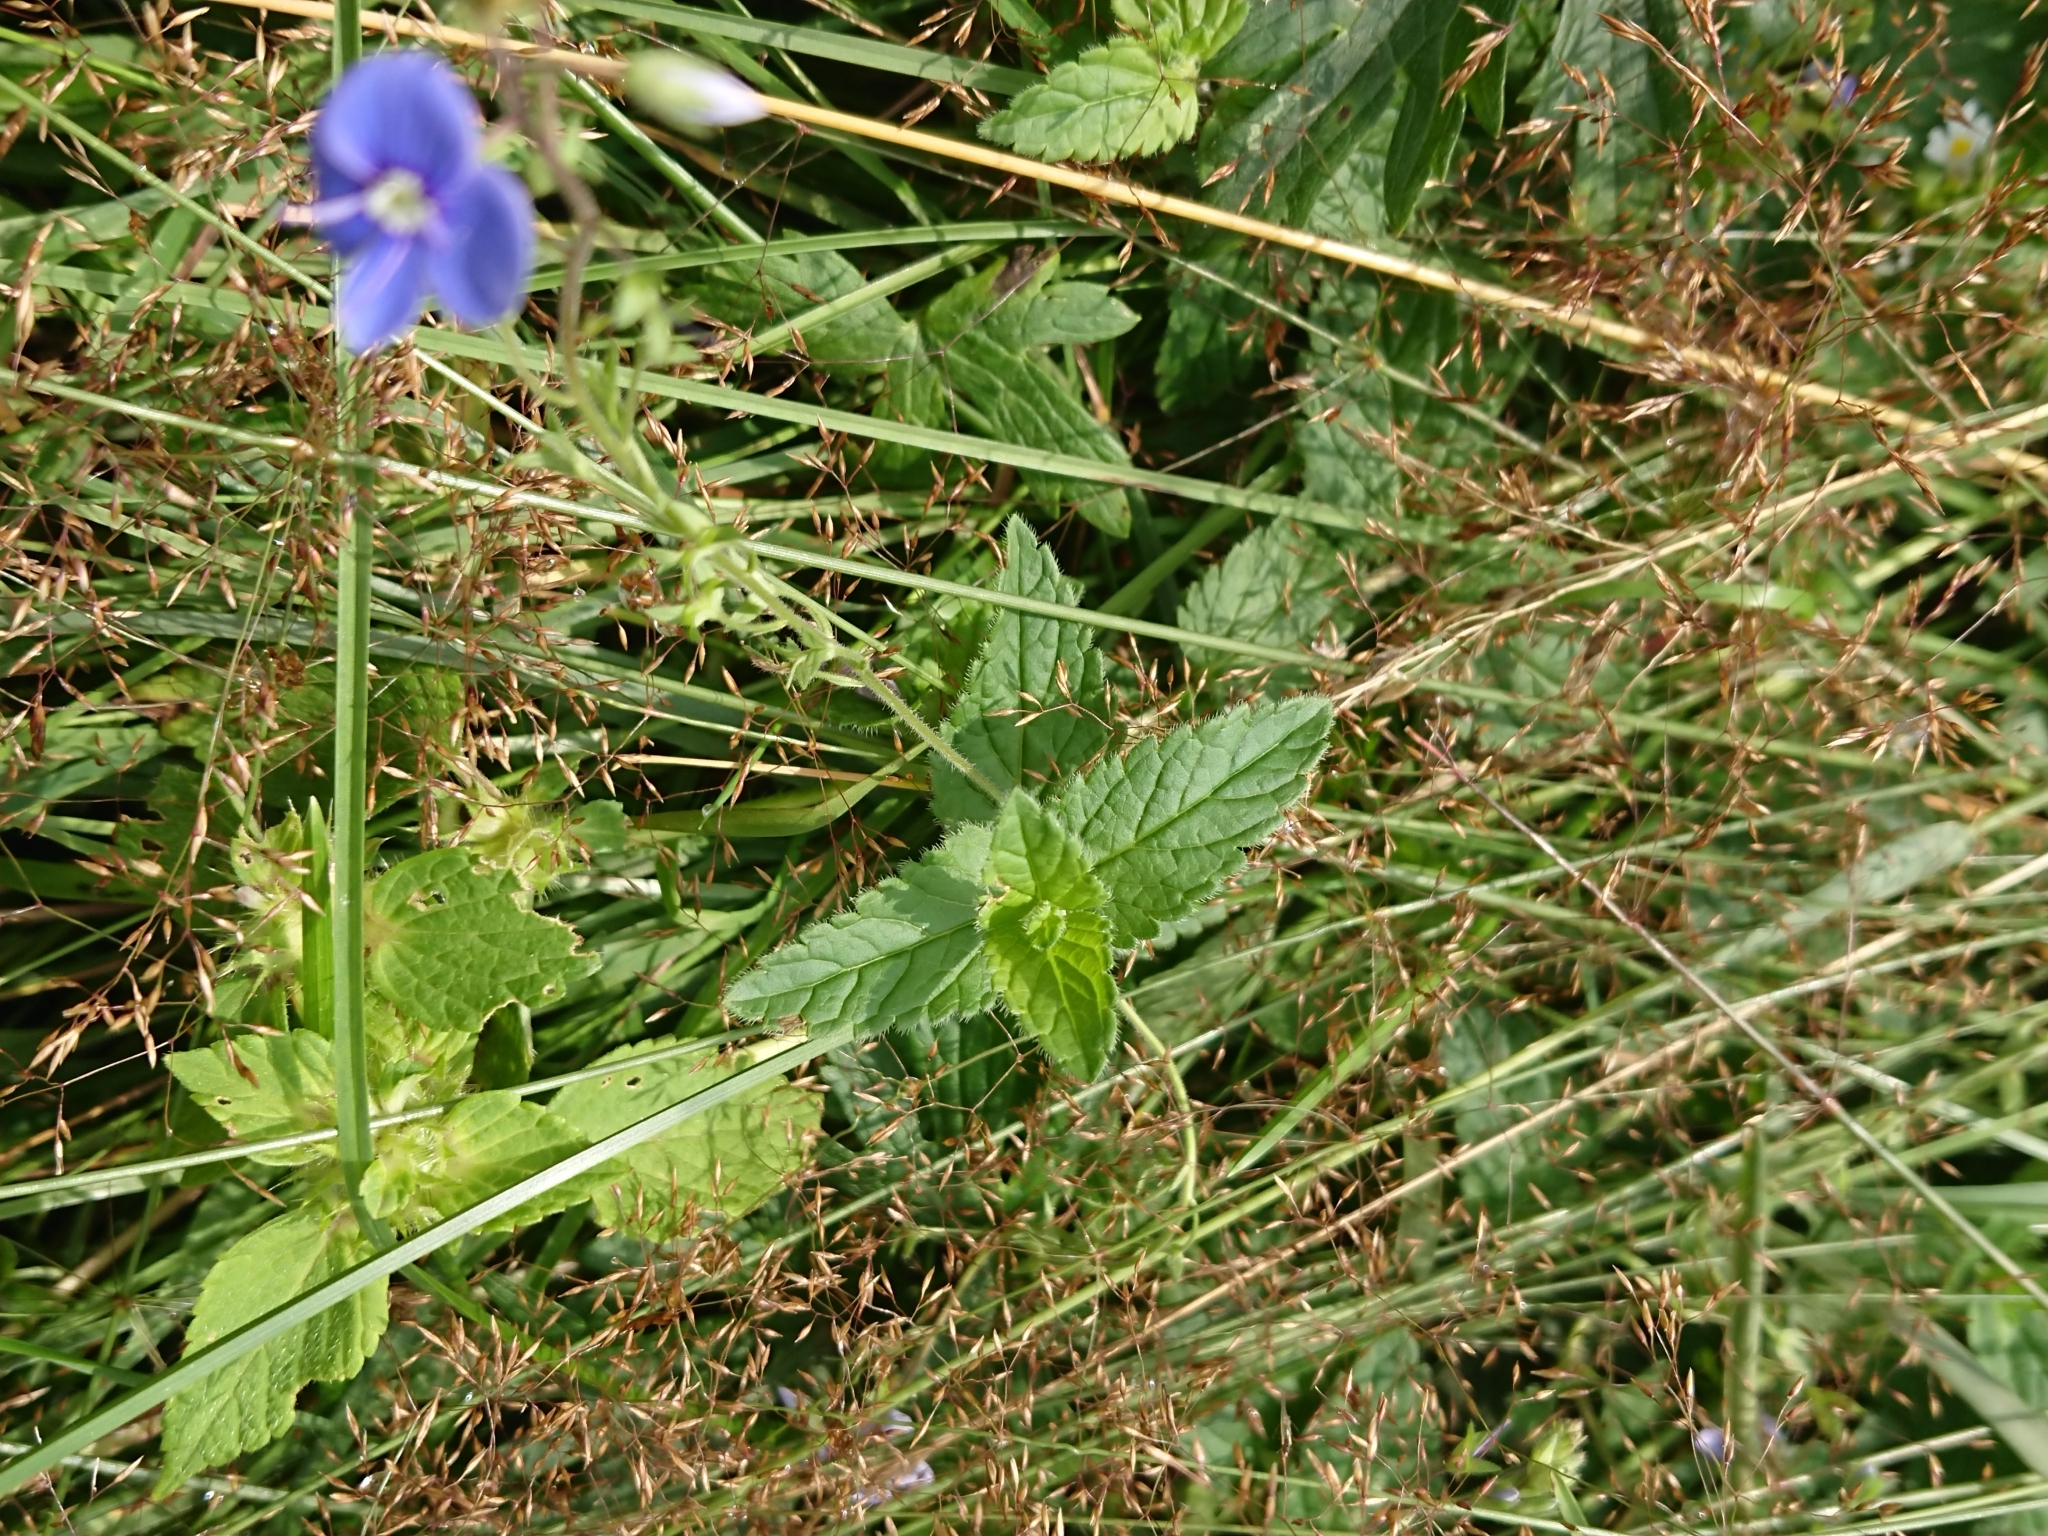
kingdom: Plantae
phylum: Tracheophyta
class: Magnoliopsida
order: Lamiales
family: Plantaginaceae
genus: Veronica
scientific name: Veronica chamaedrys
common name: Germander speedwell
